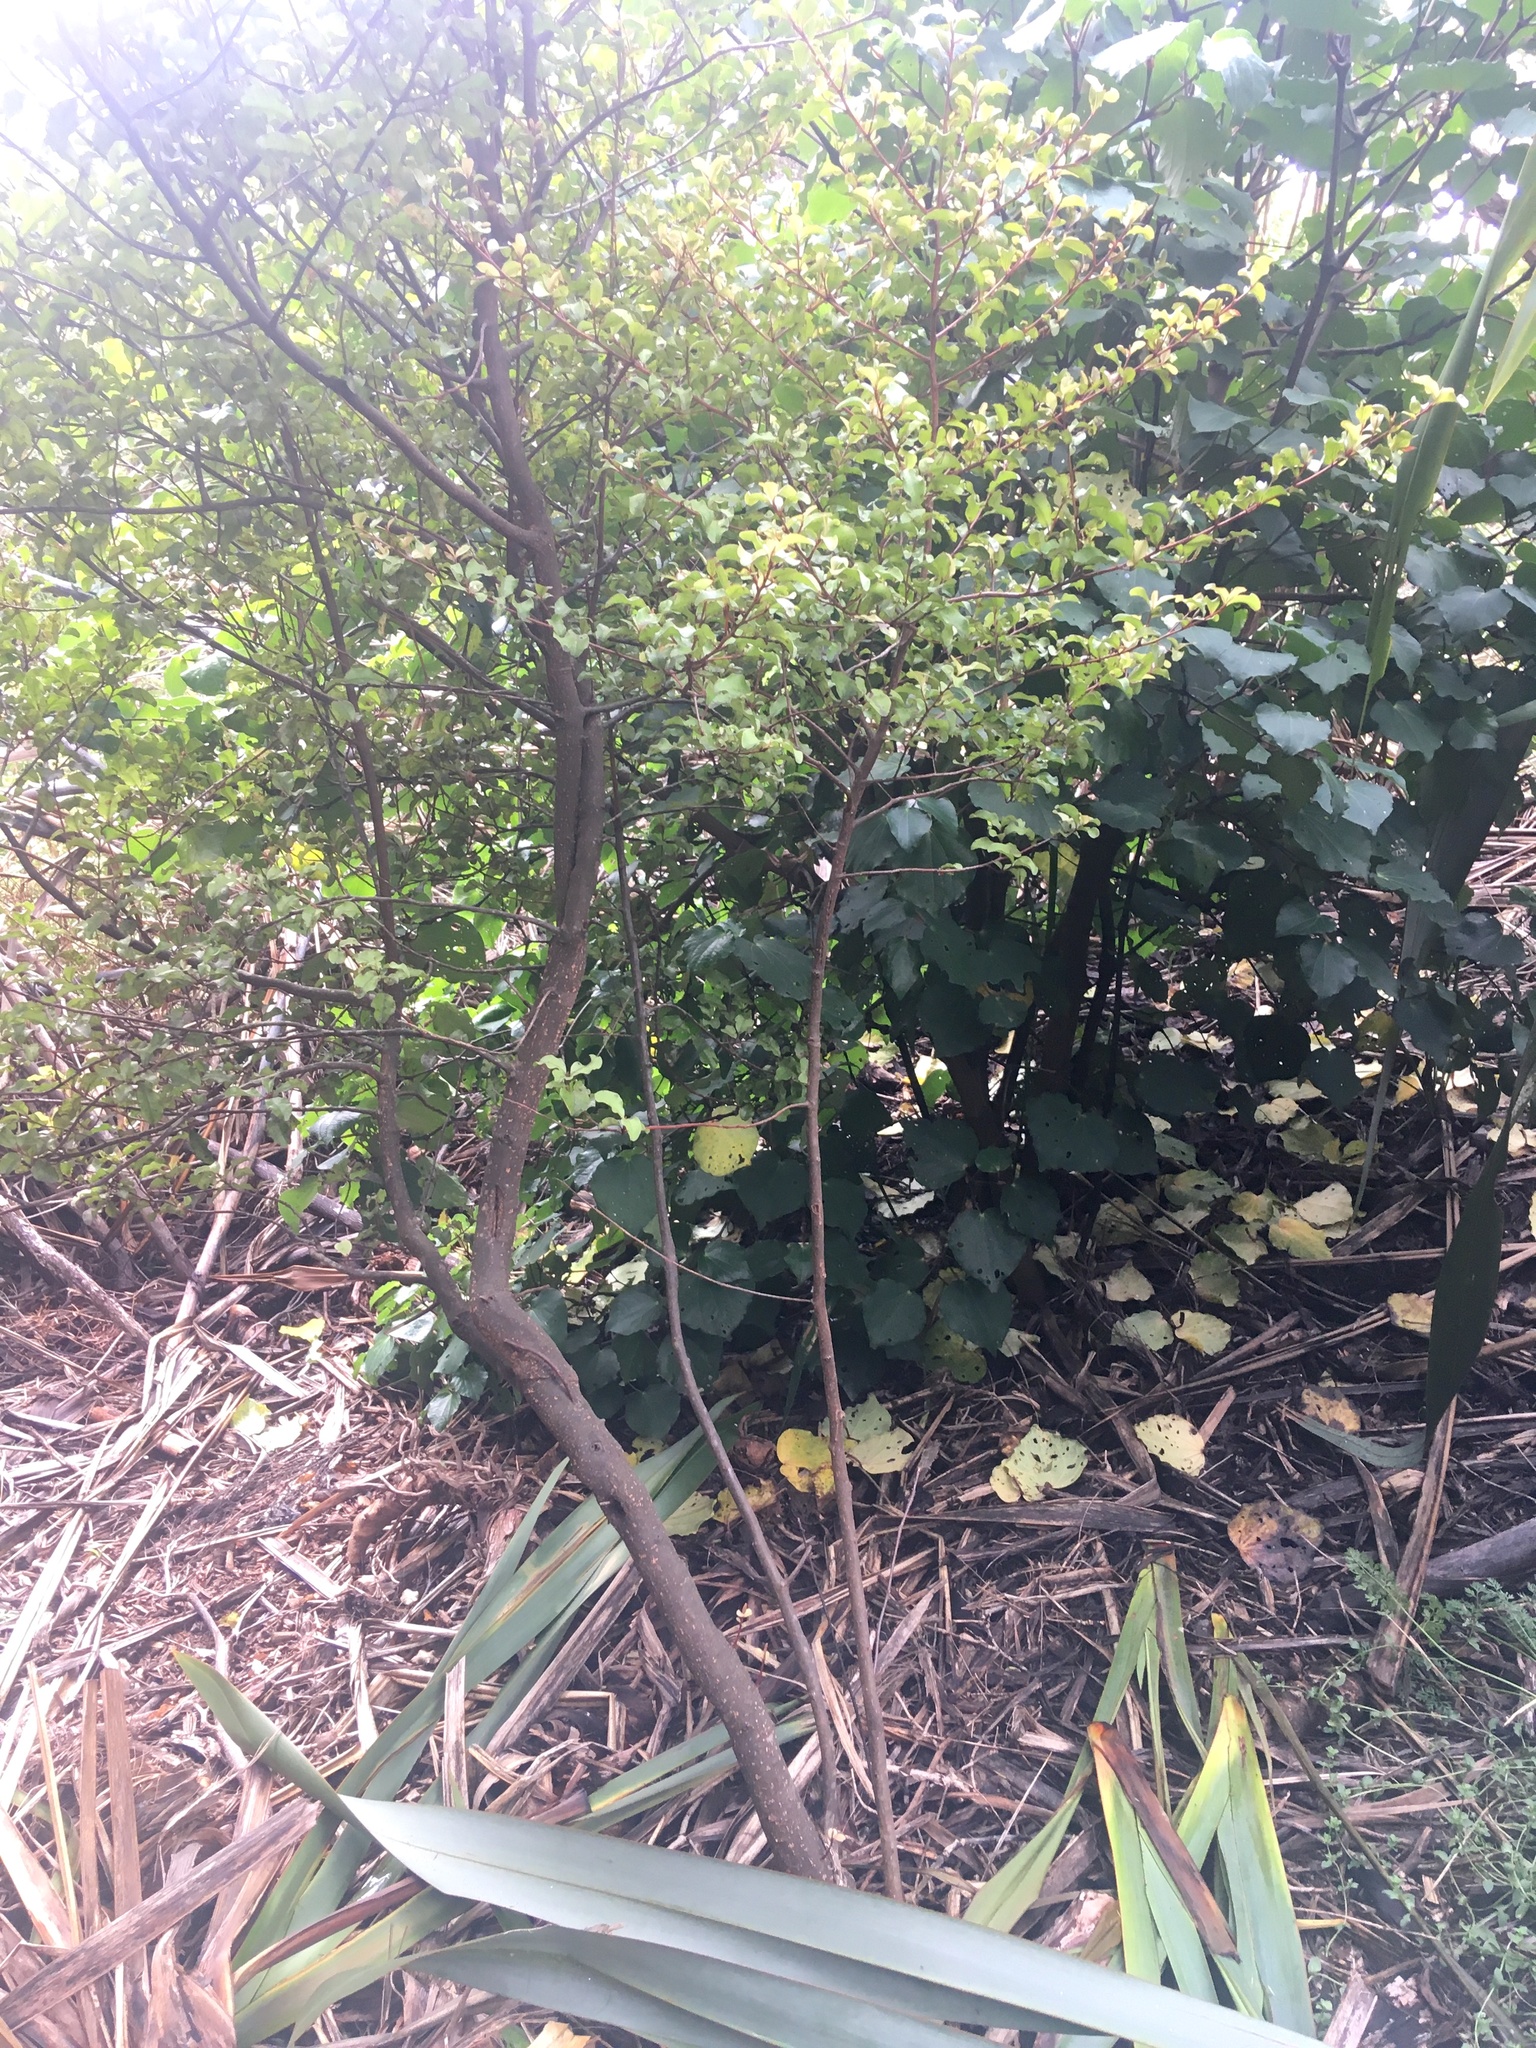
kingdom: Plantae
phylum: Tracheophyta
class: Magnoliopsida
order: Ericales
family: Primulaceae
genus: Myrsine
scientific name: Myrsine australis
